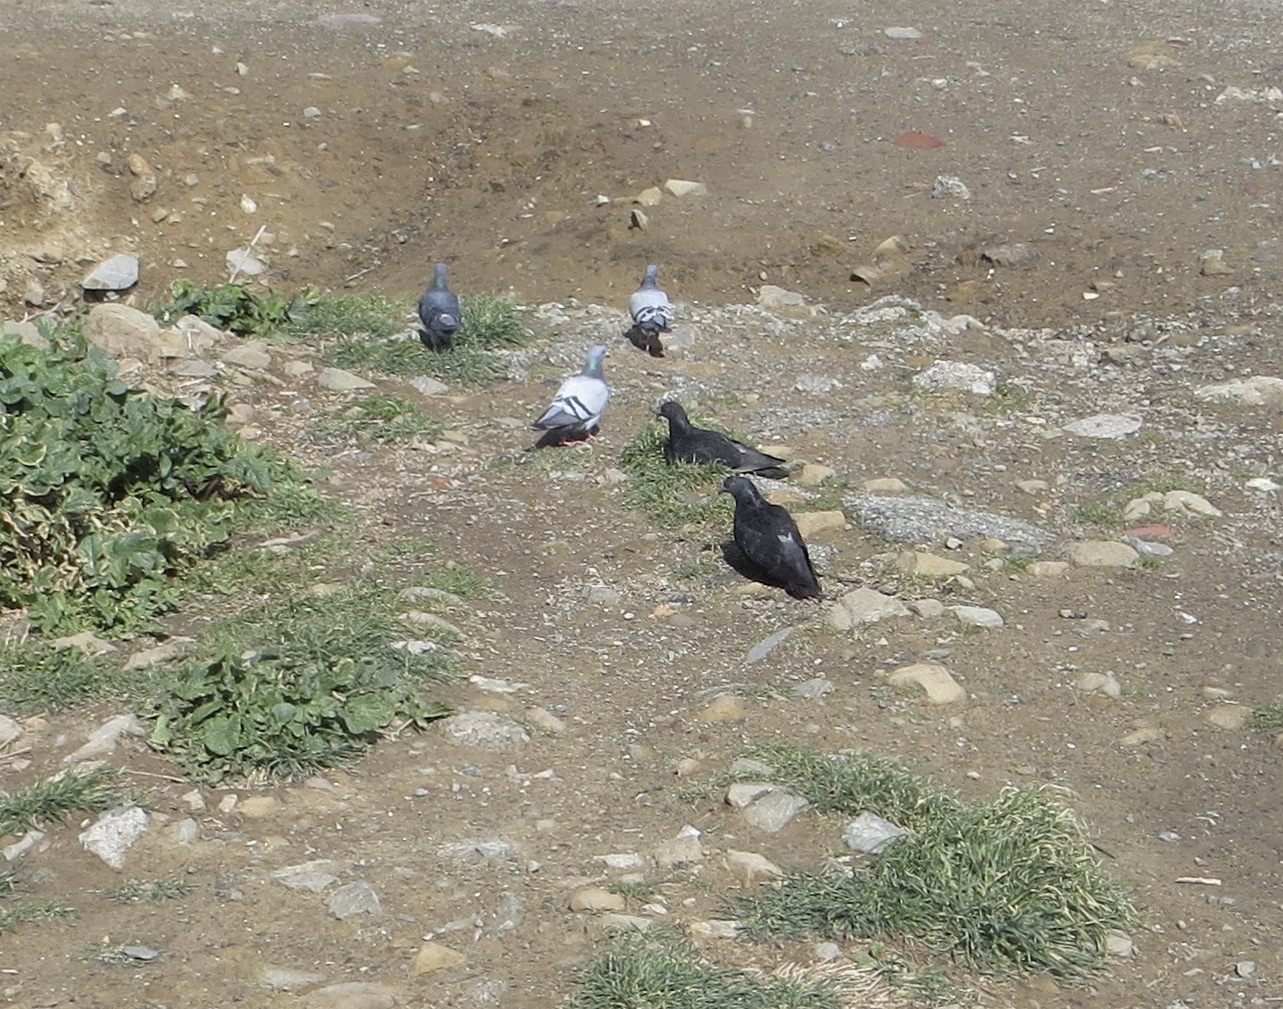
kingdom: Animalia
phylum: Chordata
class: Aves
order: Columbiformes
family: Columbidae
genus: Columba
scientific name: Columba livia
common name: Rock pigeon
